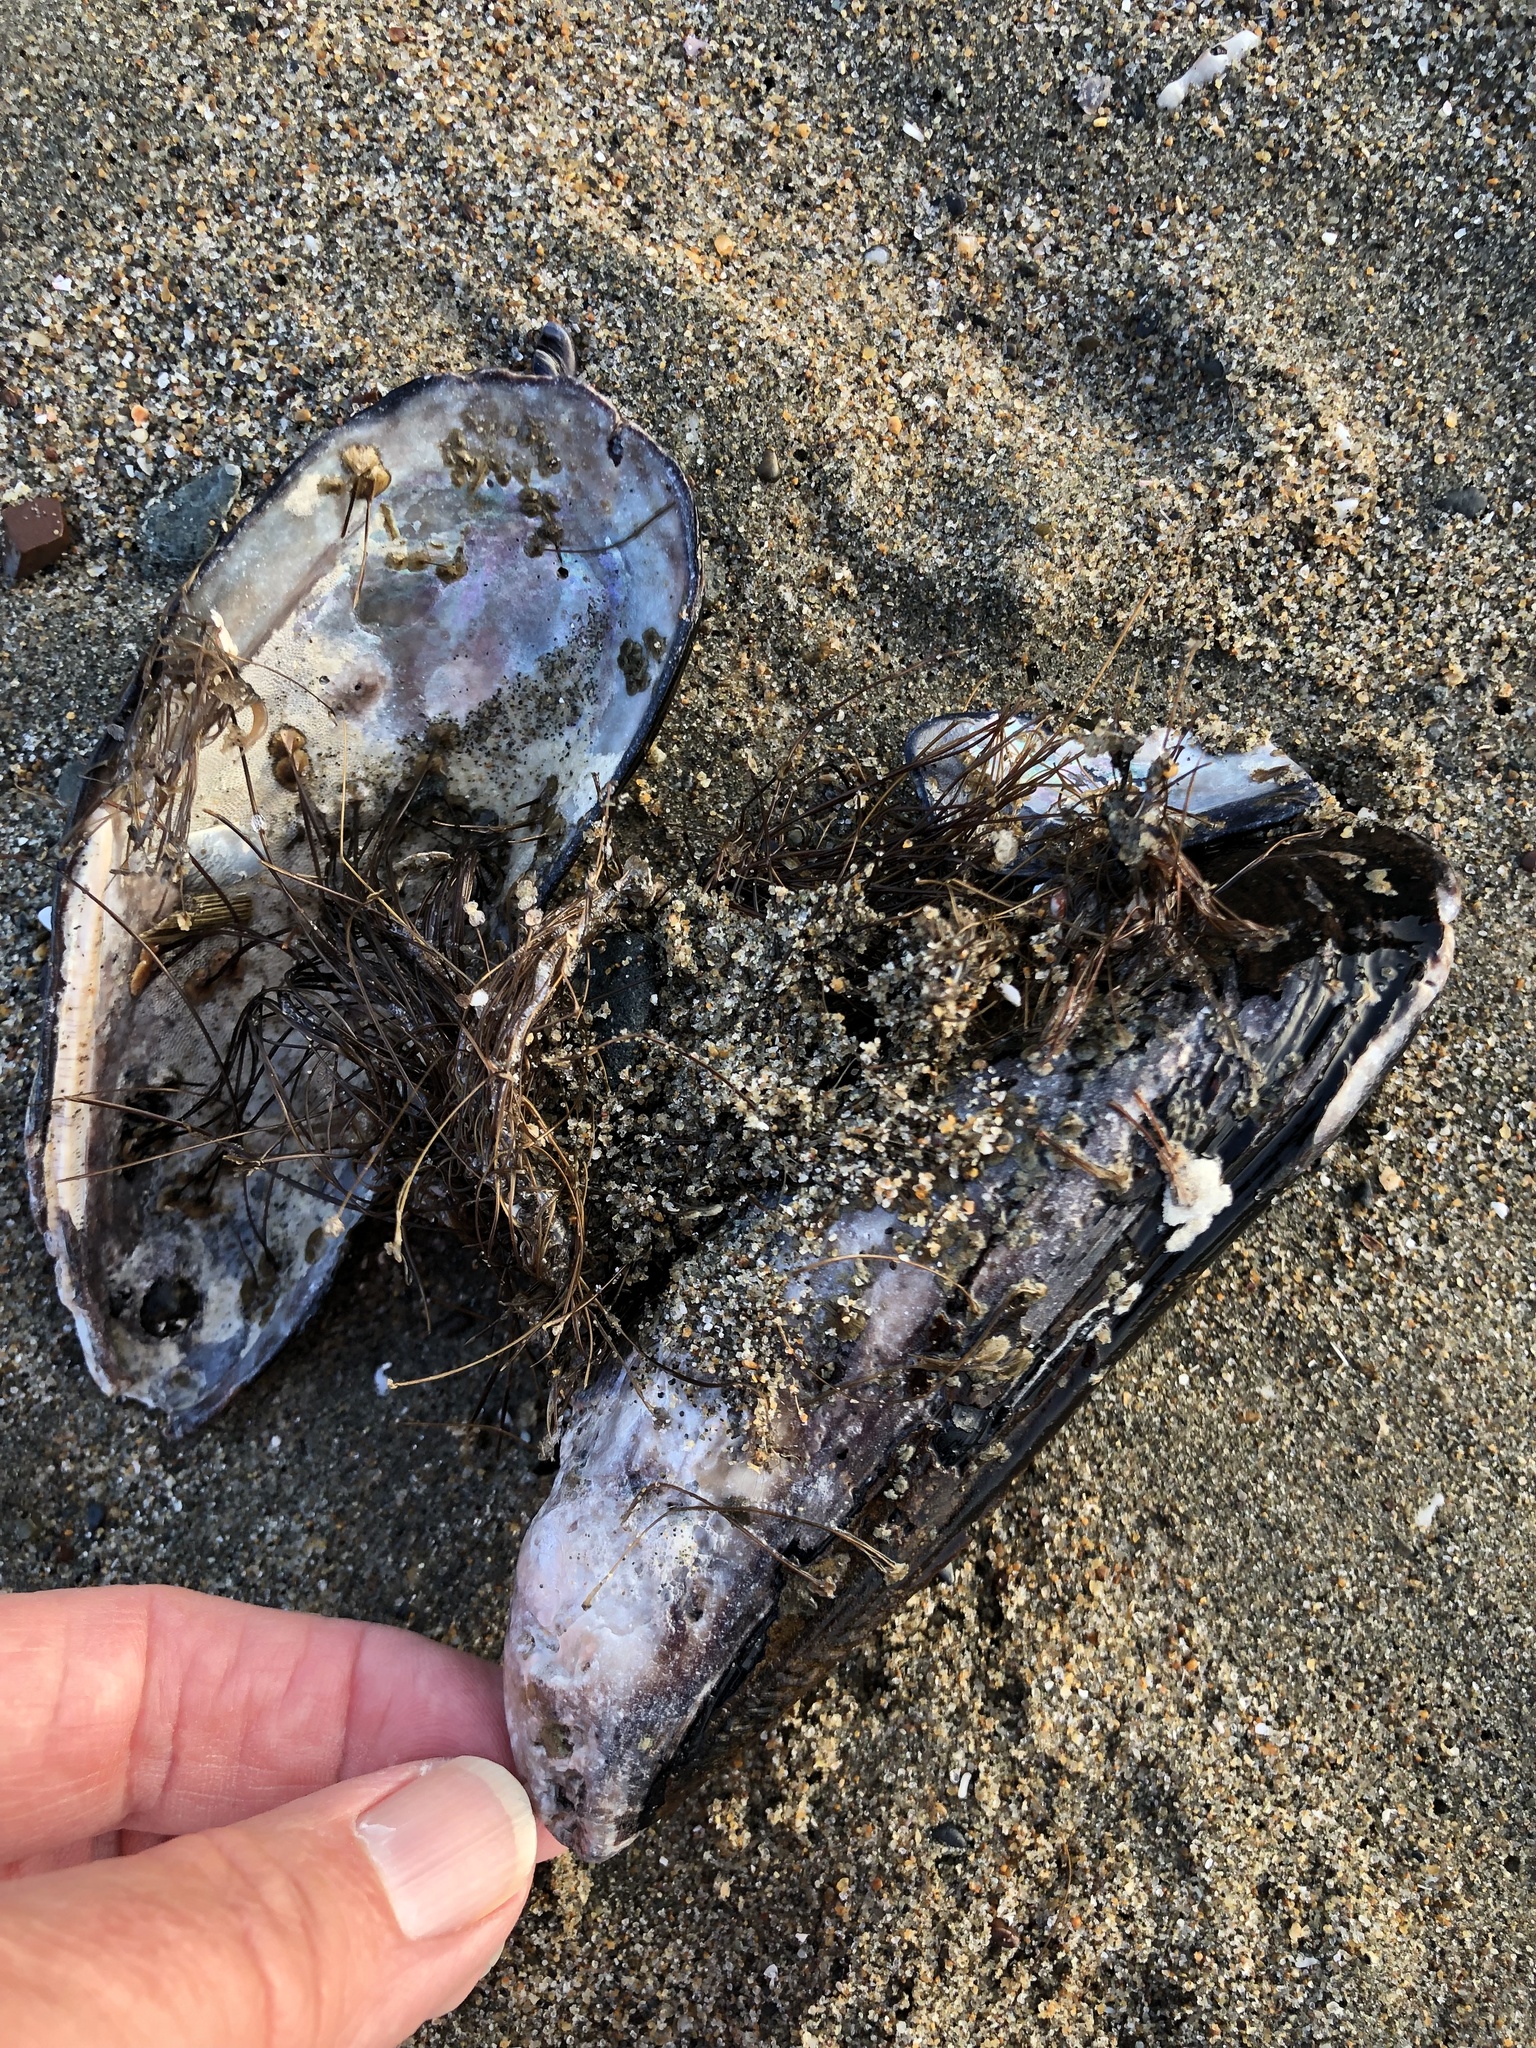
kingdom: Animalia
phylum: Mollusca
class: Bivalvia
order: Mytilida
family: Mytilidae
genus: Mytilus
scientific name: Mytilus californianus
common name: California mussel
